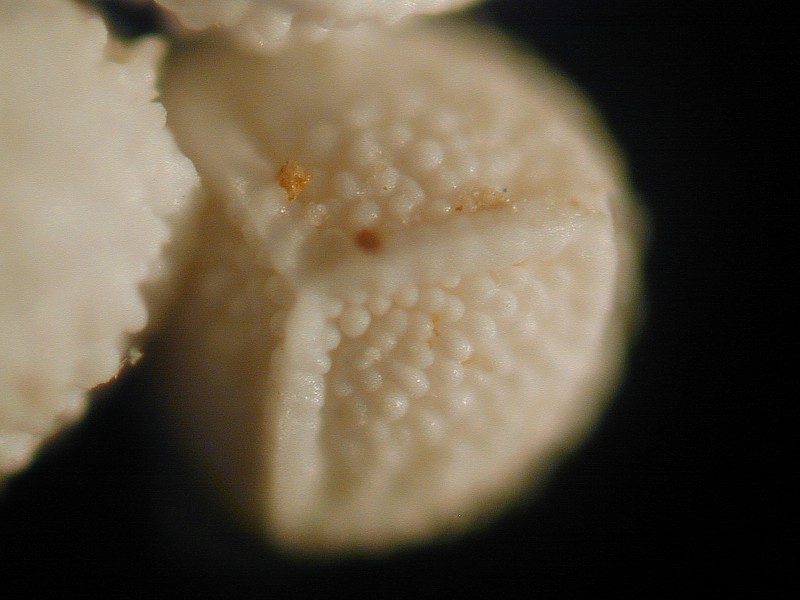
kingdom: Plantae
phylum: Tracheophyta
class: Lycopodiopsida
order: Isoetales
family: Isoetaceae
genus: Isoetes
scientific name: Isoetes histrix
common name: Land quillwort
